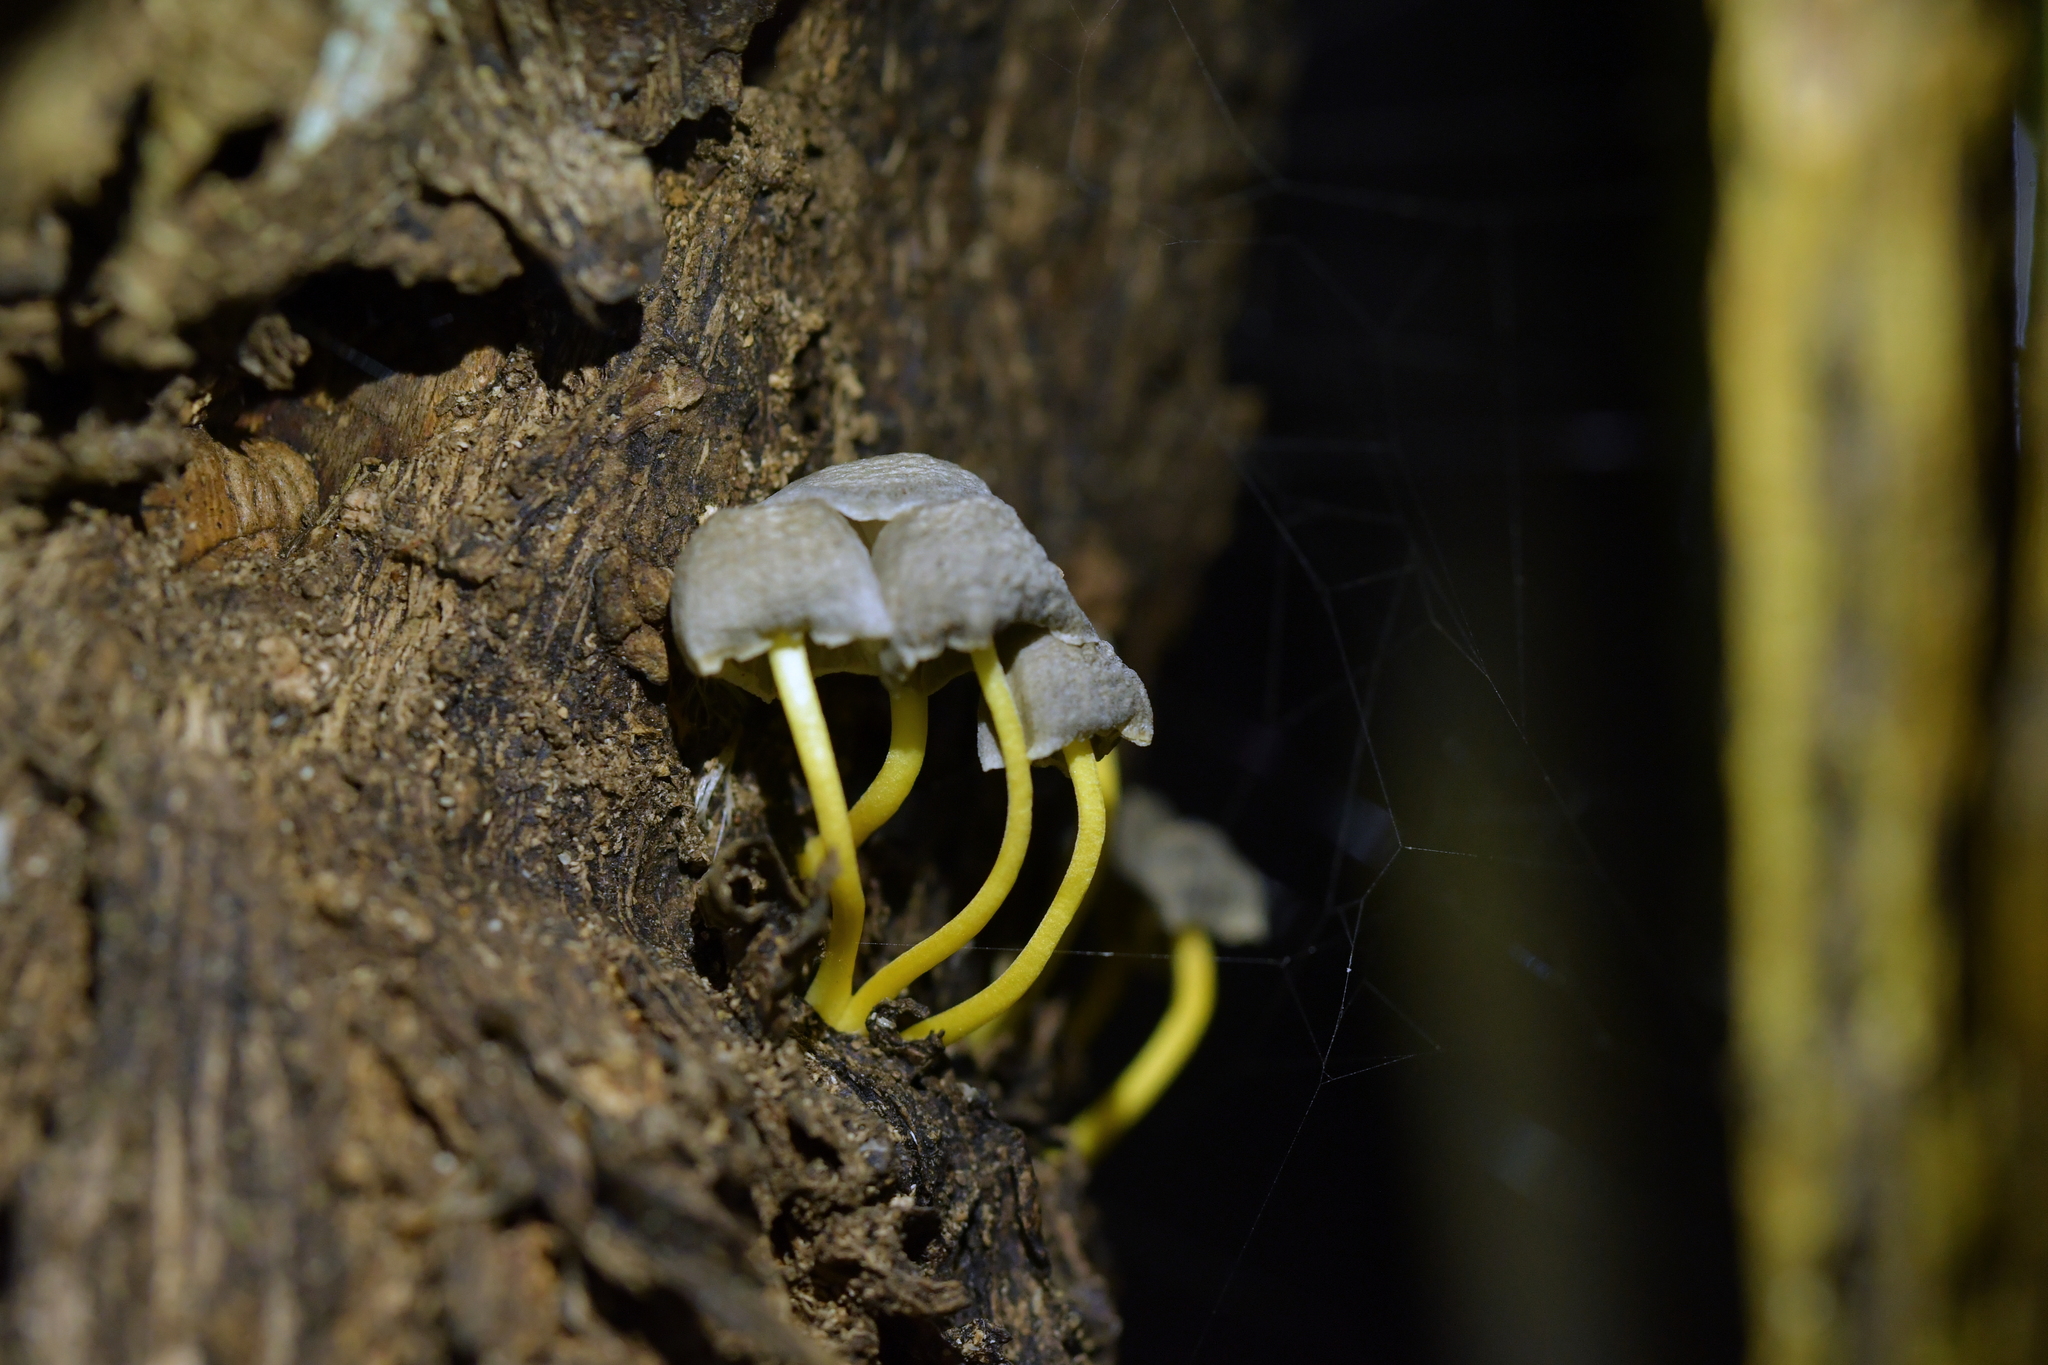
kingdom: Fungi
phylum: Basidiomycota
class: Agaricomycetes
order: Agaricales
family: Mycenaceae
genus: Mycena
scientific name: Mycena subviscosa
